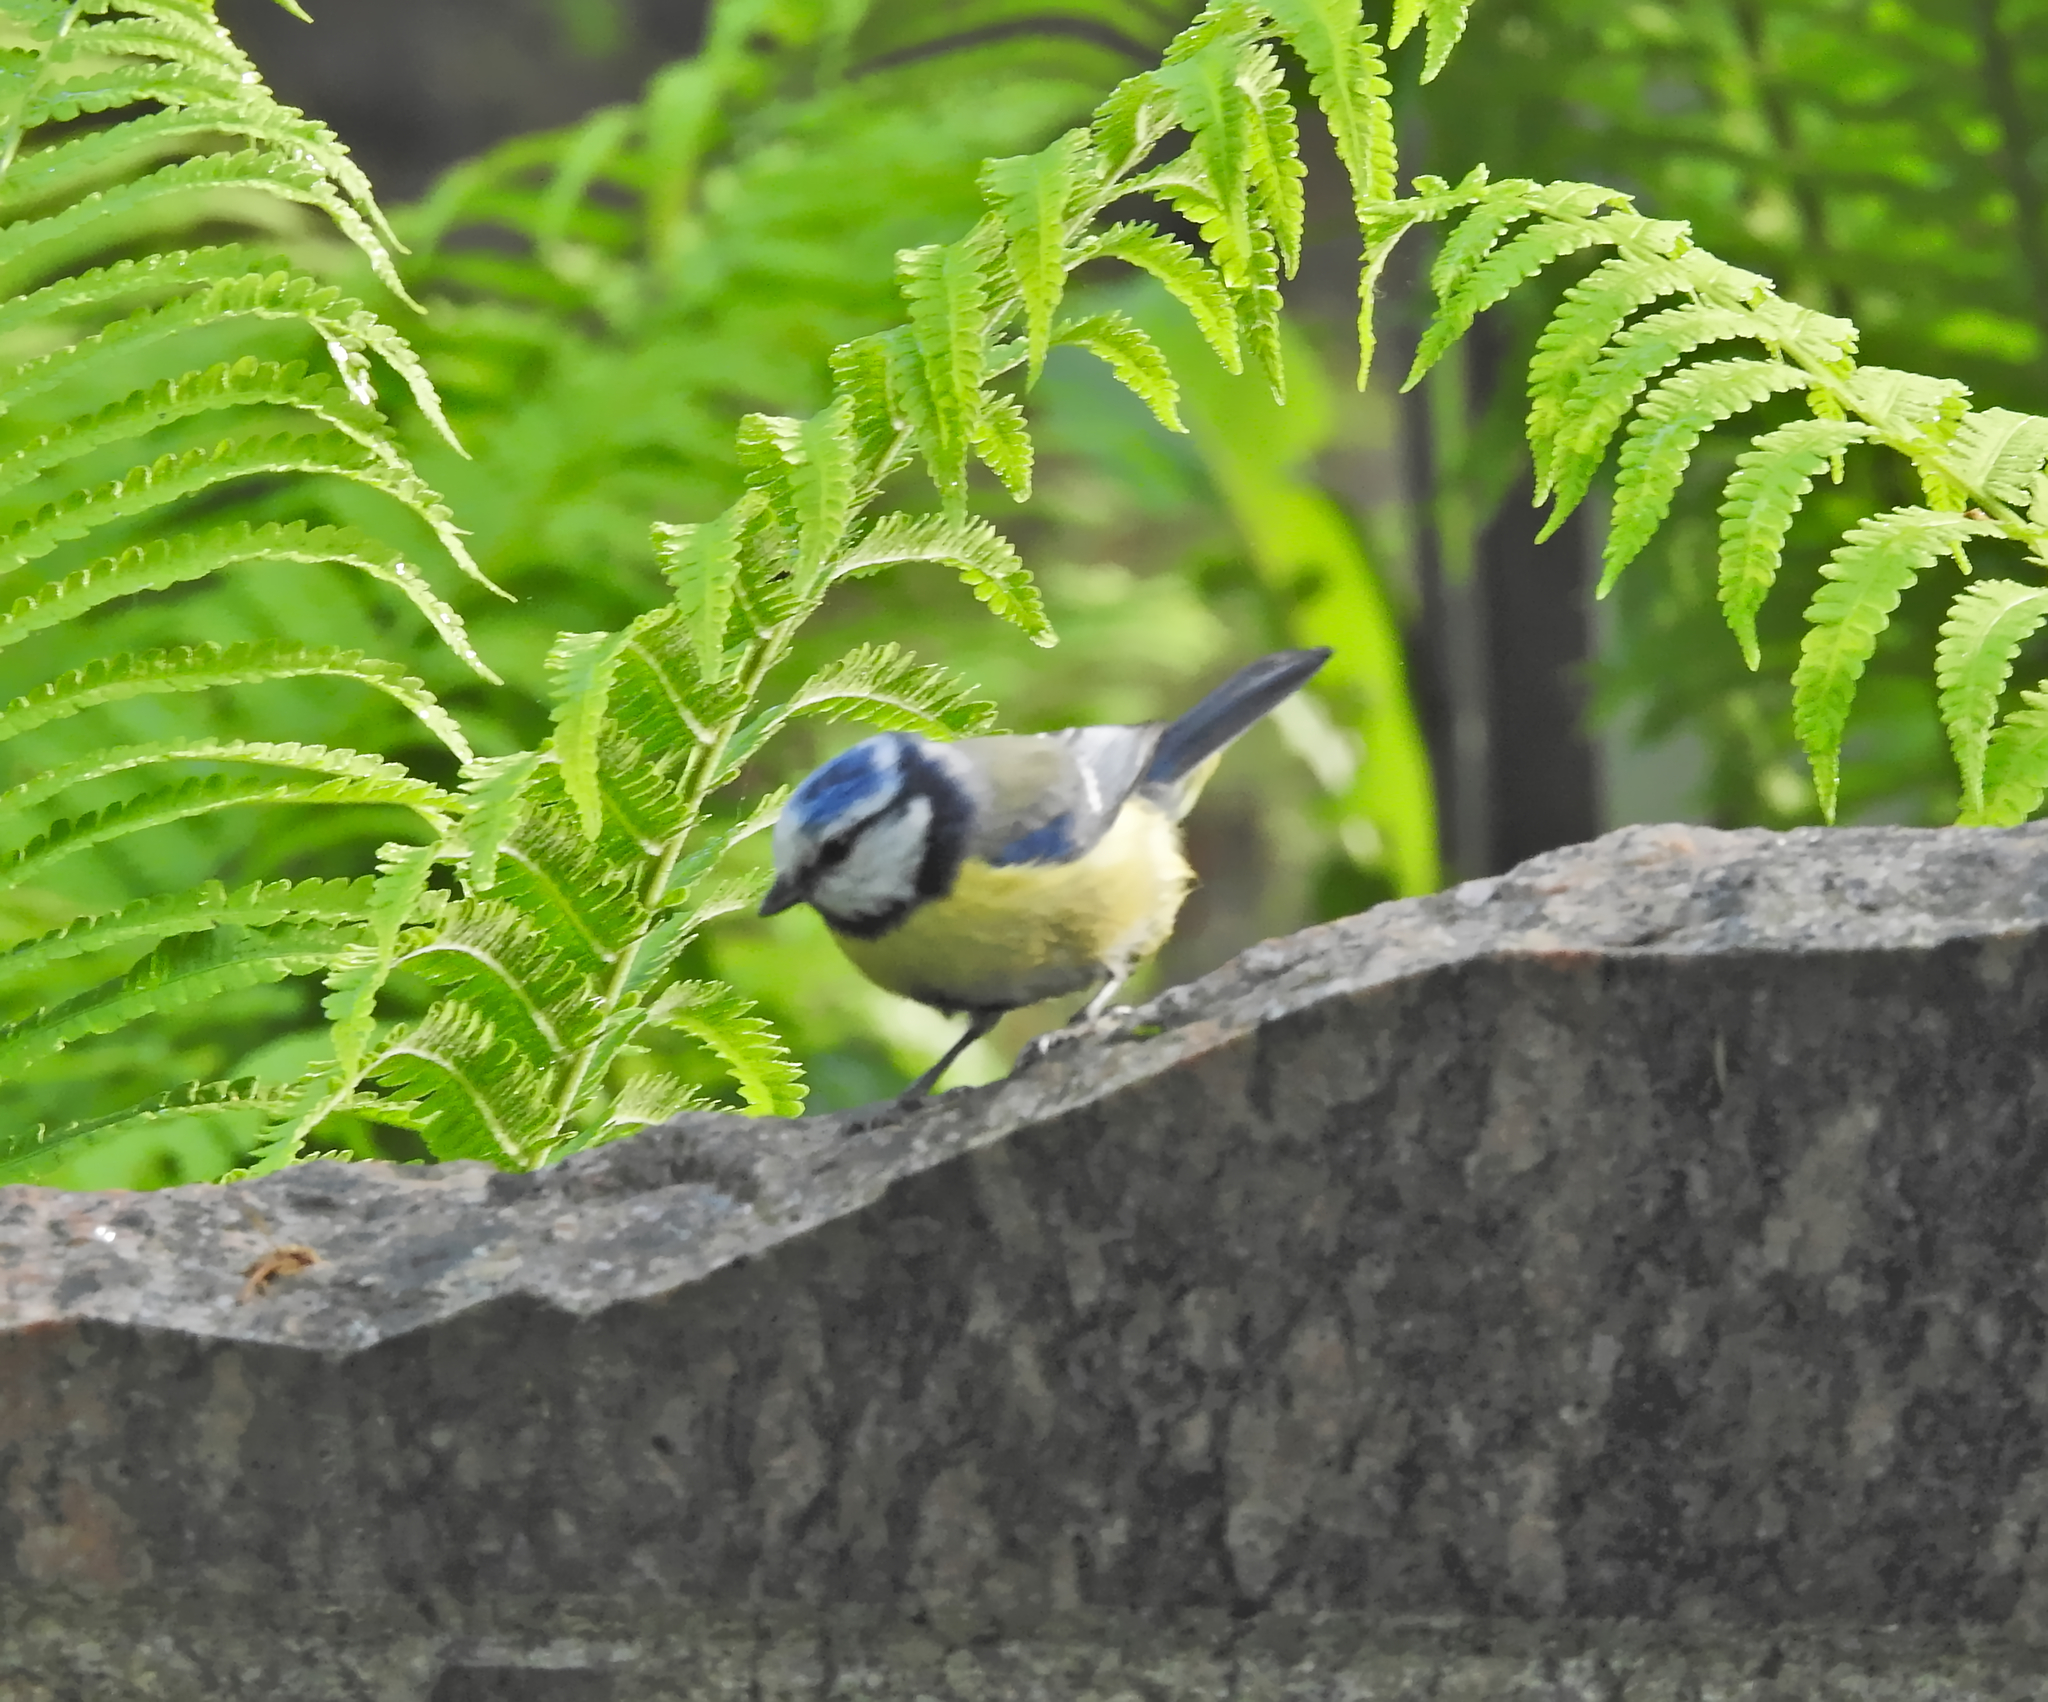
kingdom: Animalia
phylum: Chordata
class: Aves
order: Passeriformes
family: Paridae
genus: Cyanistes
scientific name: Cyanistes caeruleus
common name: Eurasian blue tit
